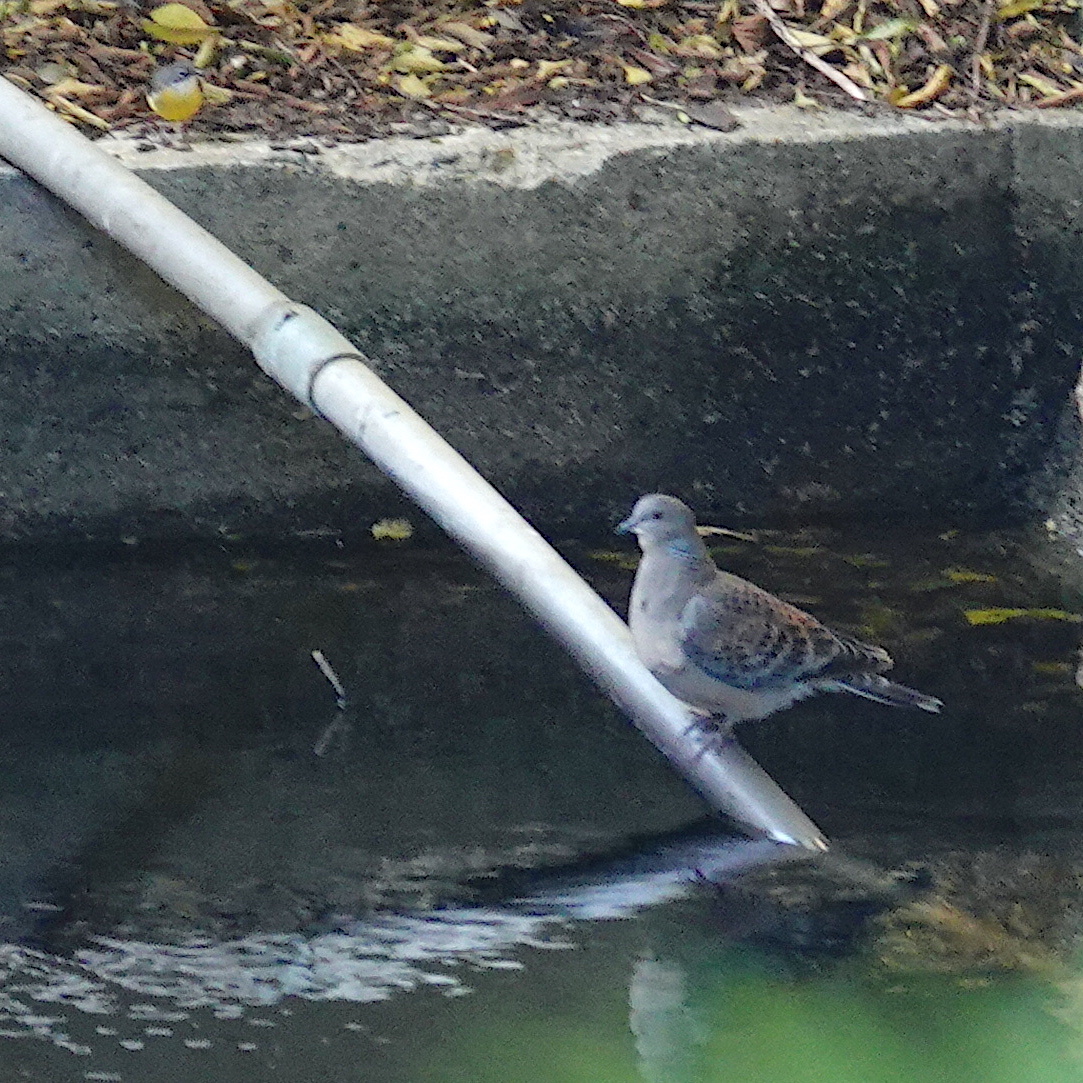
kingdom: Animalia
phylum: Chordata
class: Aves
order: Columbiformes
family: Columbidae
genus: Streptopelia
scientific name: Streptopelia orientalis
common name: Oriental turtle dove
